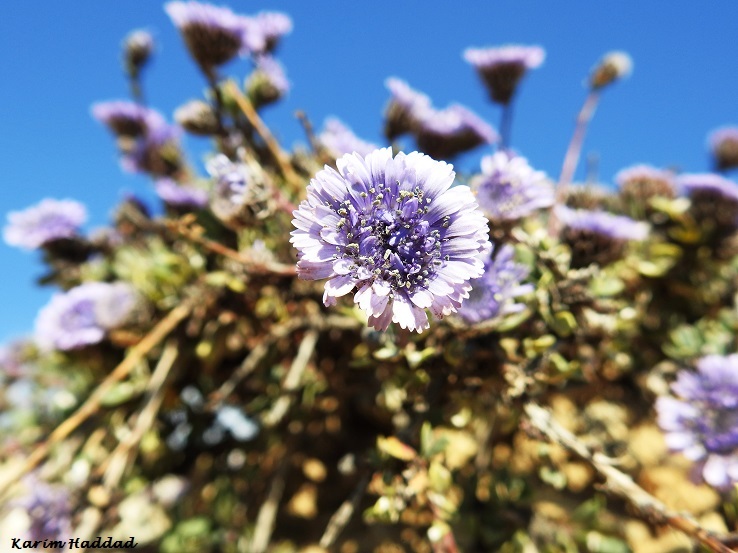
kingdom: Plantae
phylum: Tracheophyta
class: Magnoliopsida
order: Lamiales
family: Plantaginaceae
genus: Globularia
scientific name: Globularia alypum
